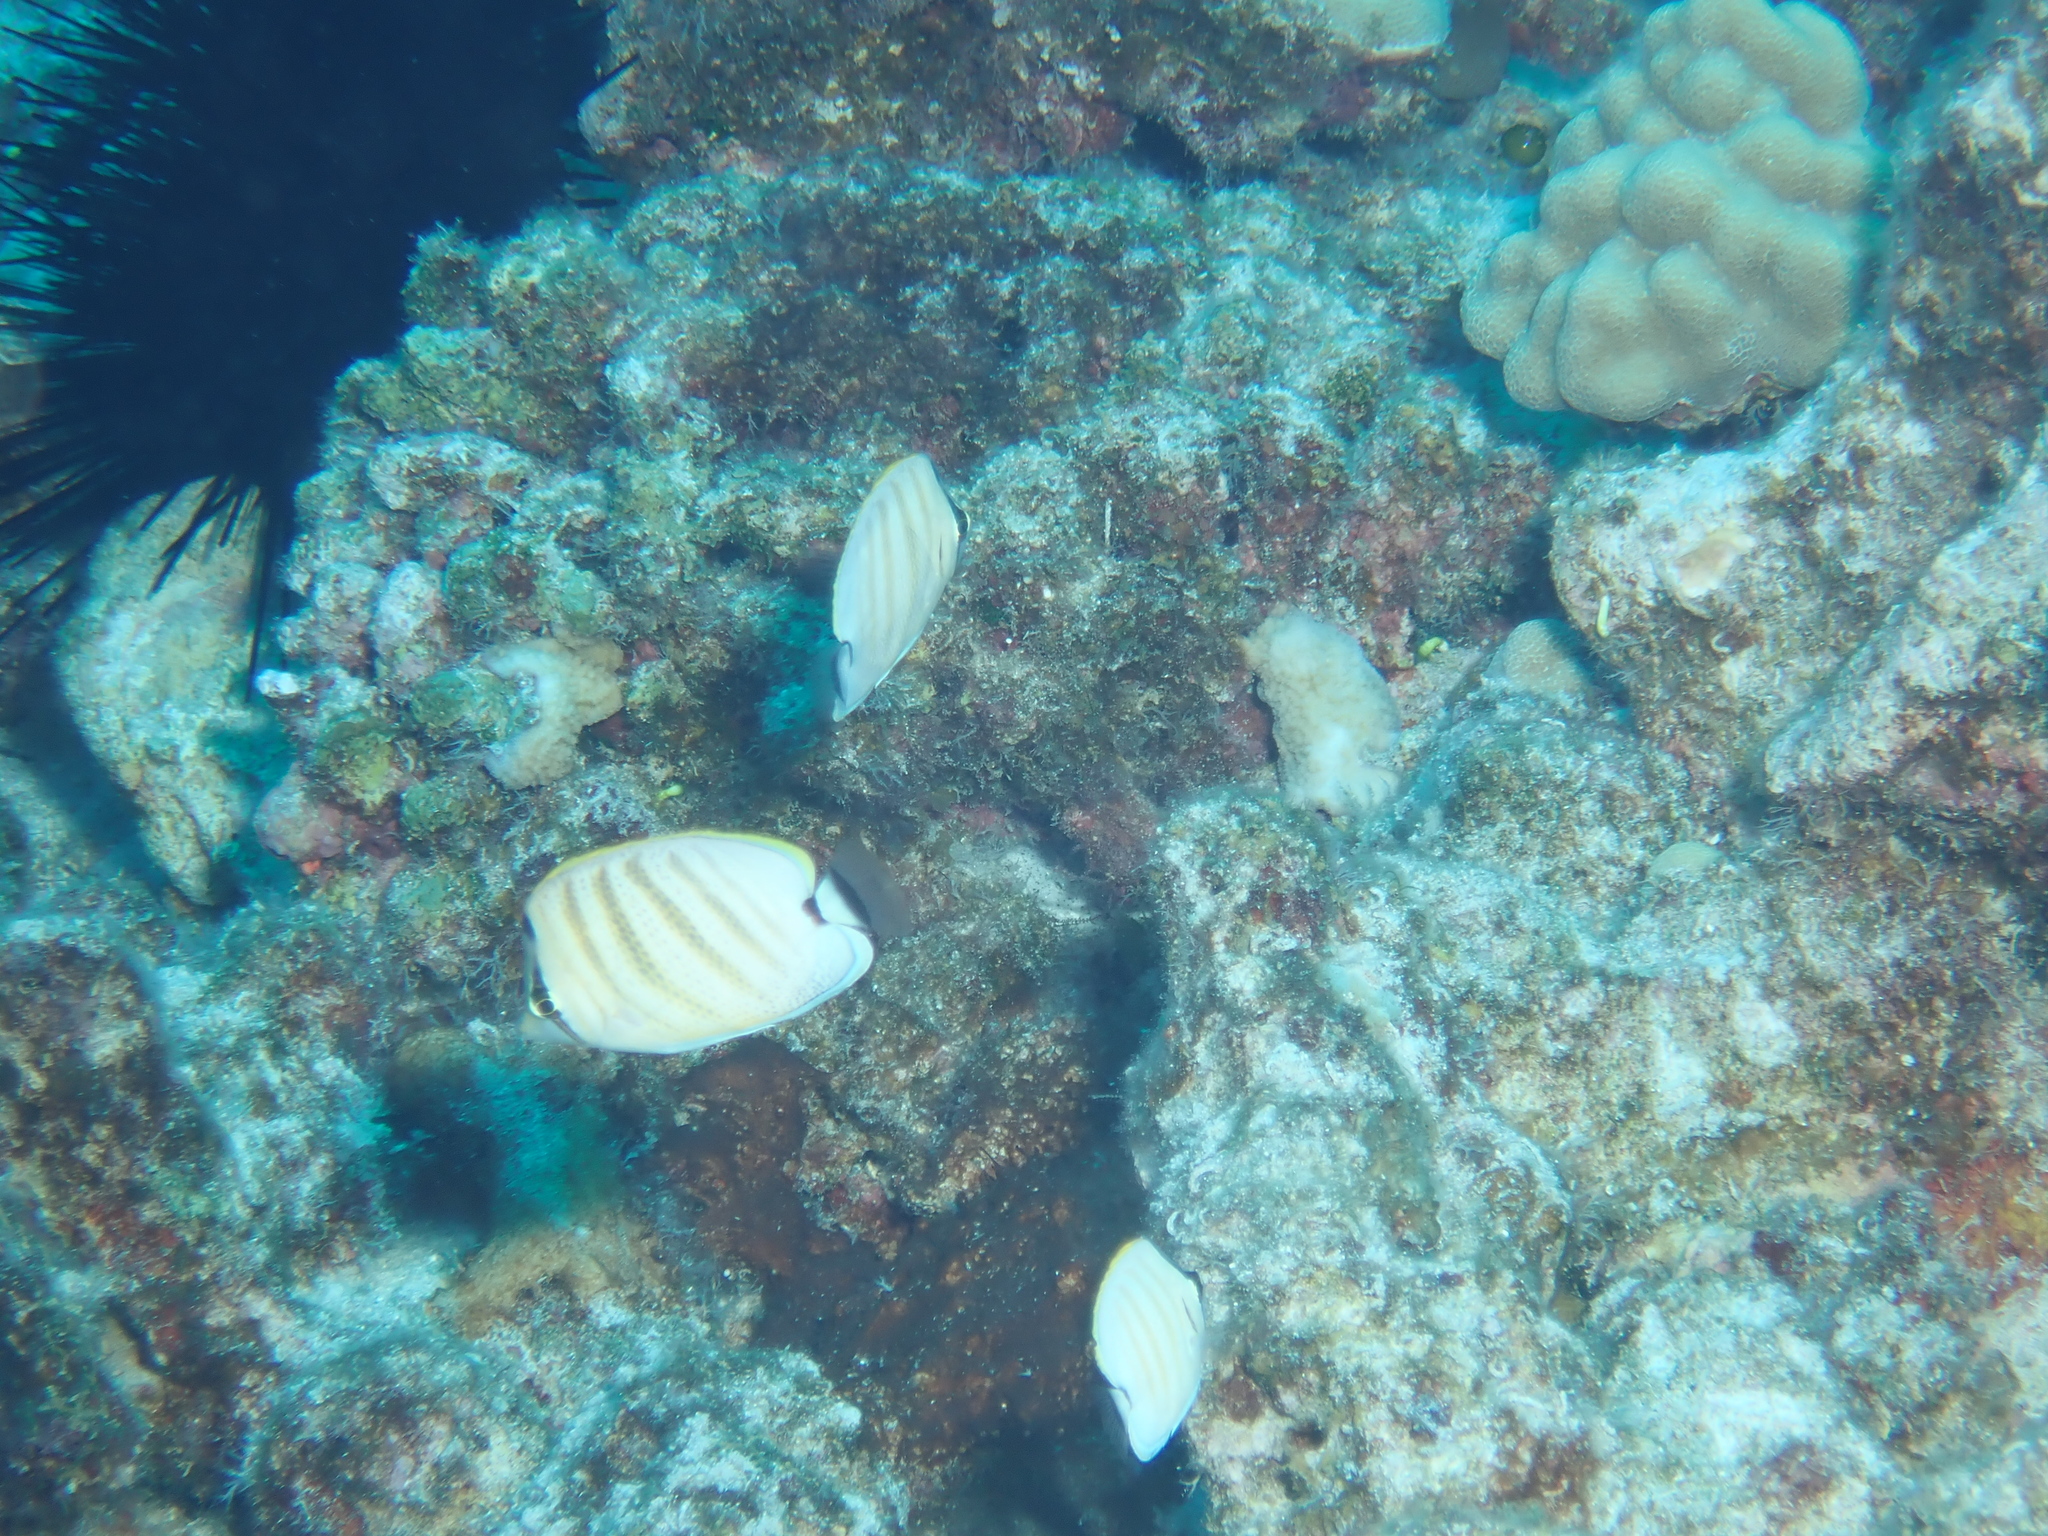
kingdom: Animalia
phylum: Chordata
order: Perciformes
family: Chaetodontidae
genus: Chaetodon
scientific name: Chaetodon multicinctus
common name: Multiband butterflyfish
